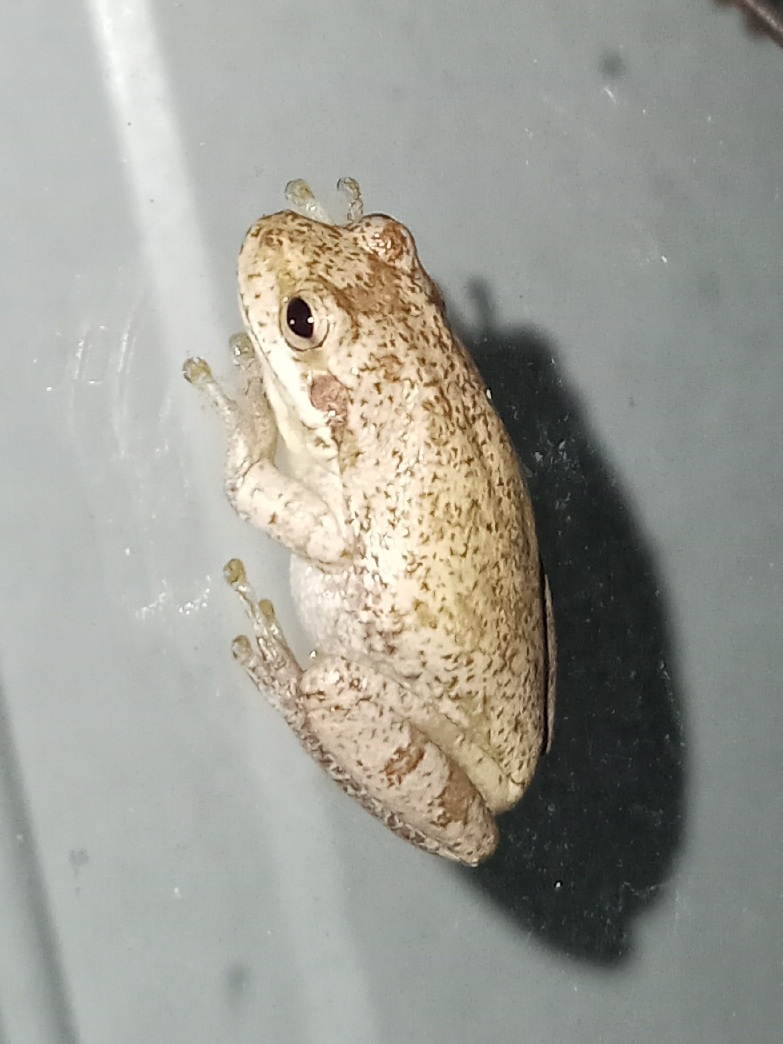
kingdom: Animalia
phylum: Chordata
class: Amphibia
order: Anura
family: Hylidae
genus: Dryophytes
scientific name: Dryophytes squirellus
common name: Squirrel treefrog
